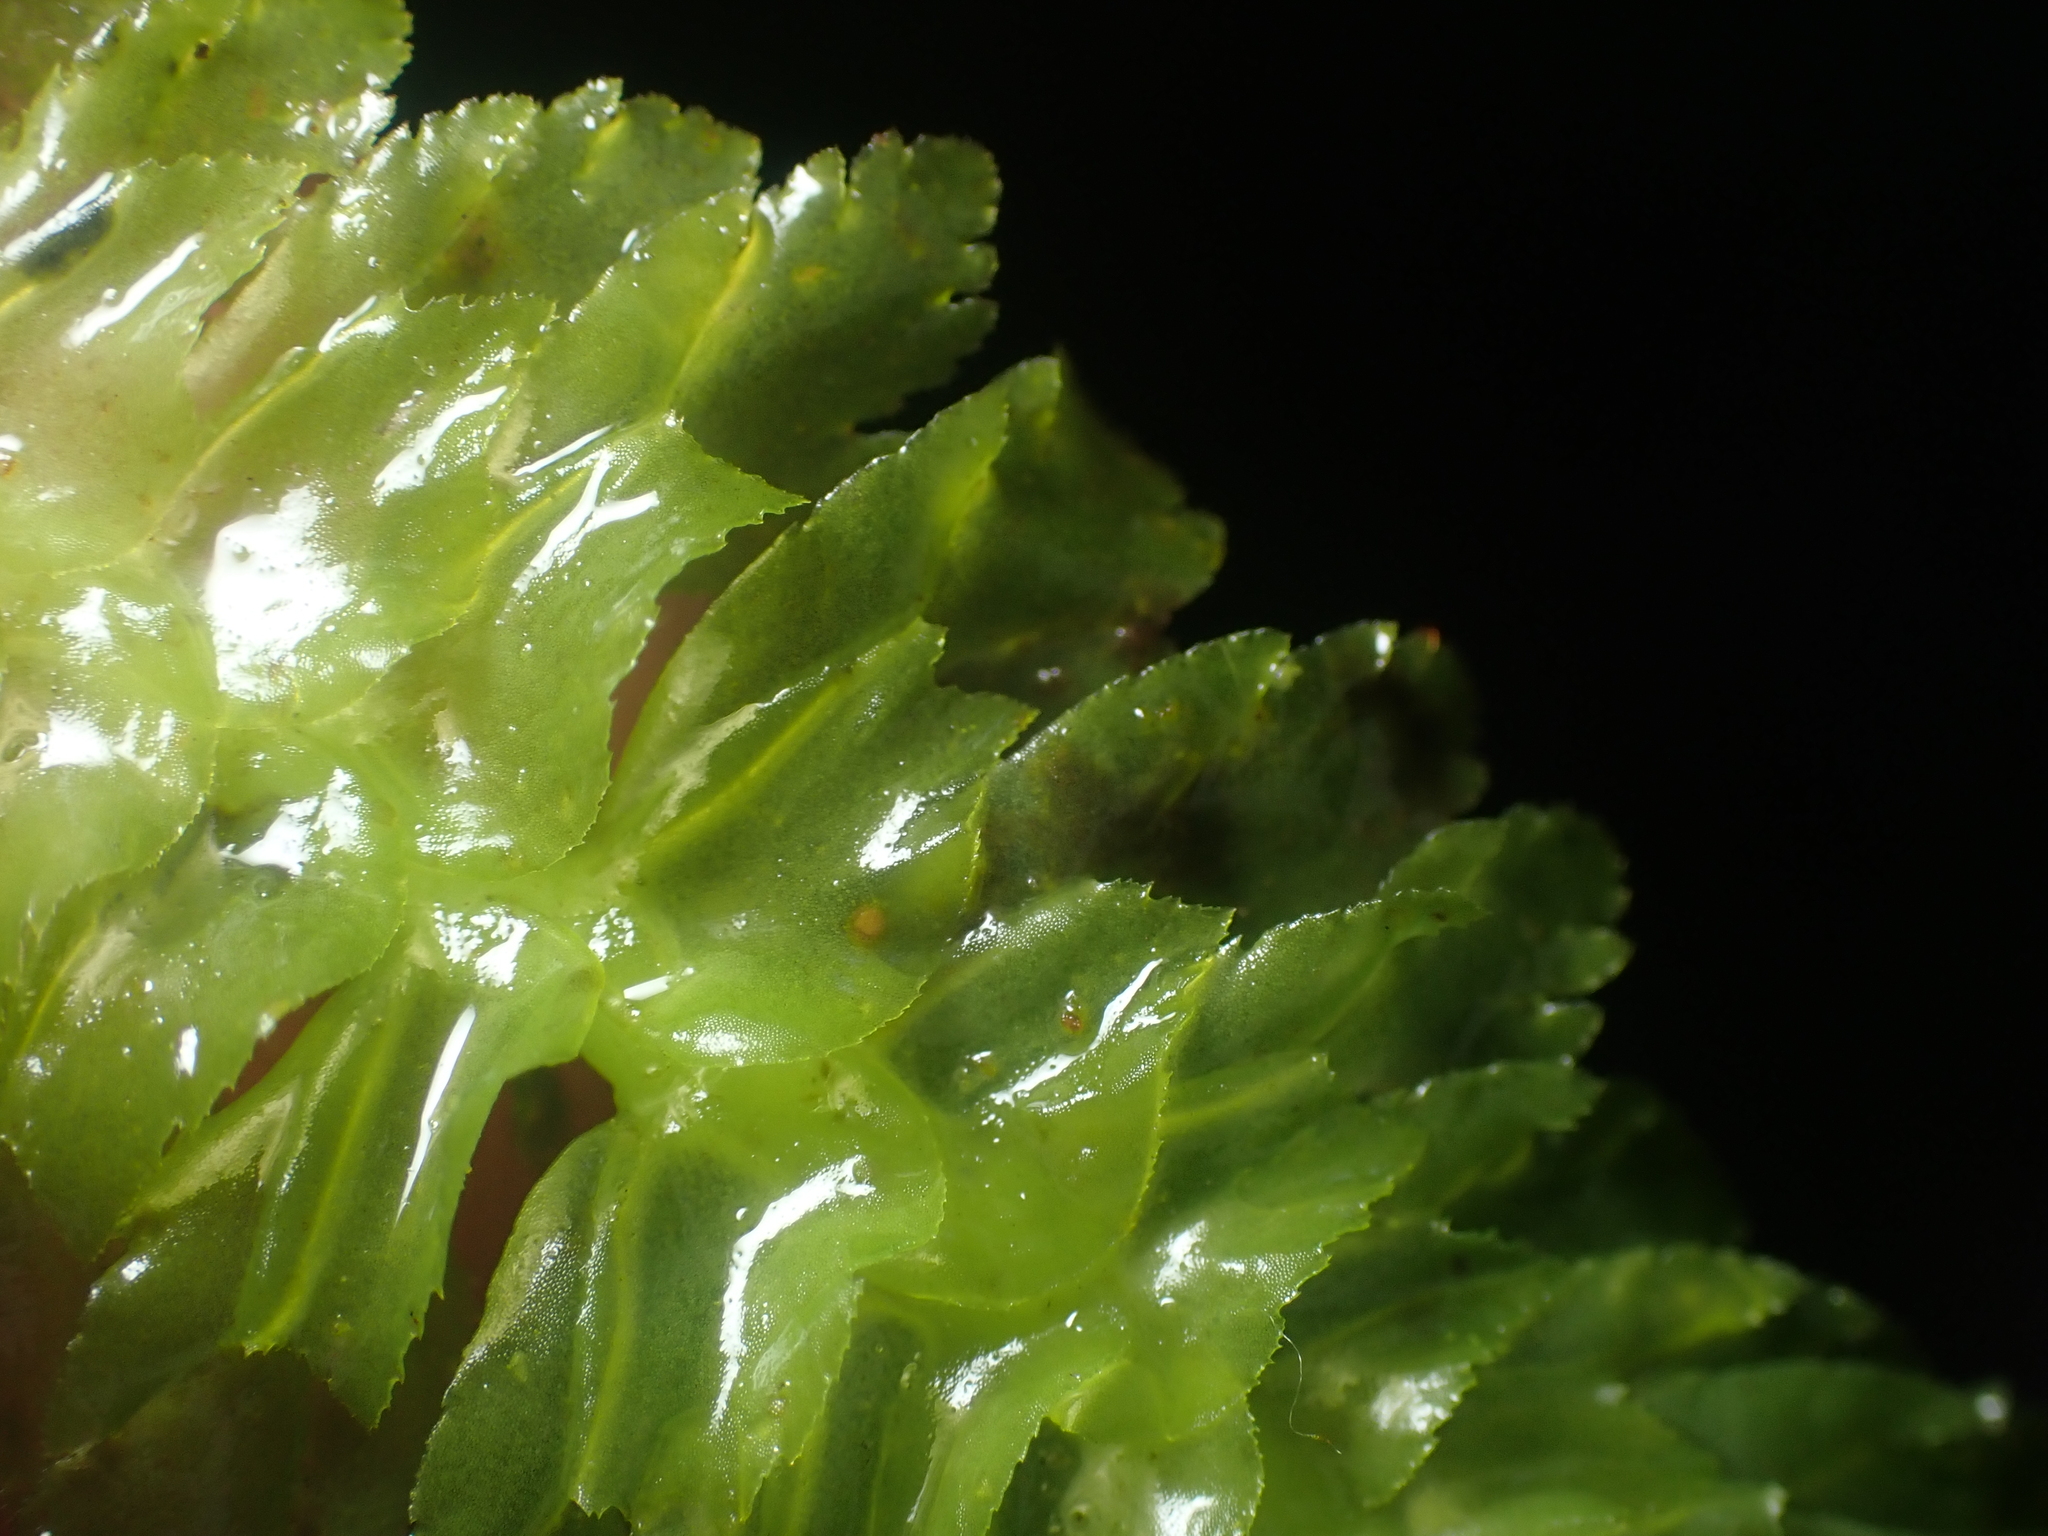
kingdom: Plantae
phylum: Marchantiophyta
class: Jungermanniopsida
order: Jungermanniales
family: Schistochilaceae
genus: Schistochila
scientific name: Schistochila appendiculata
